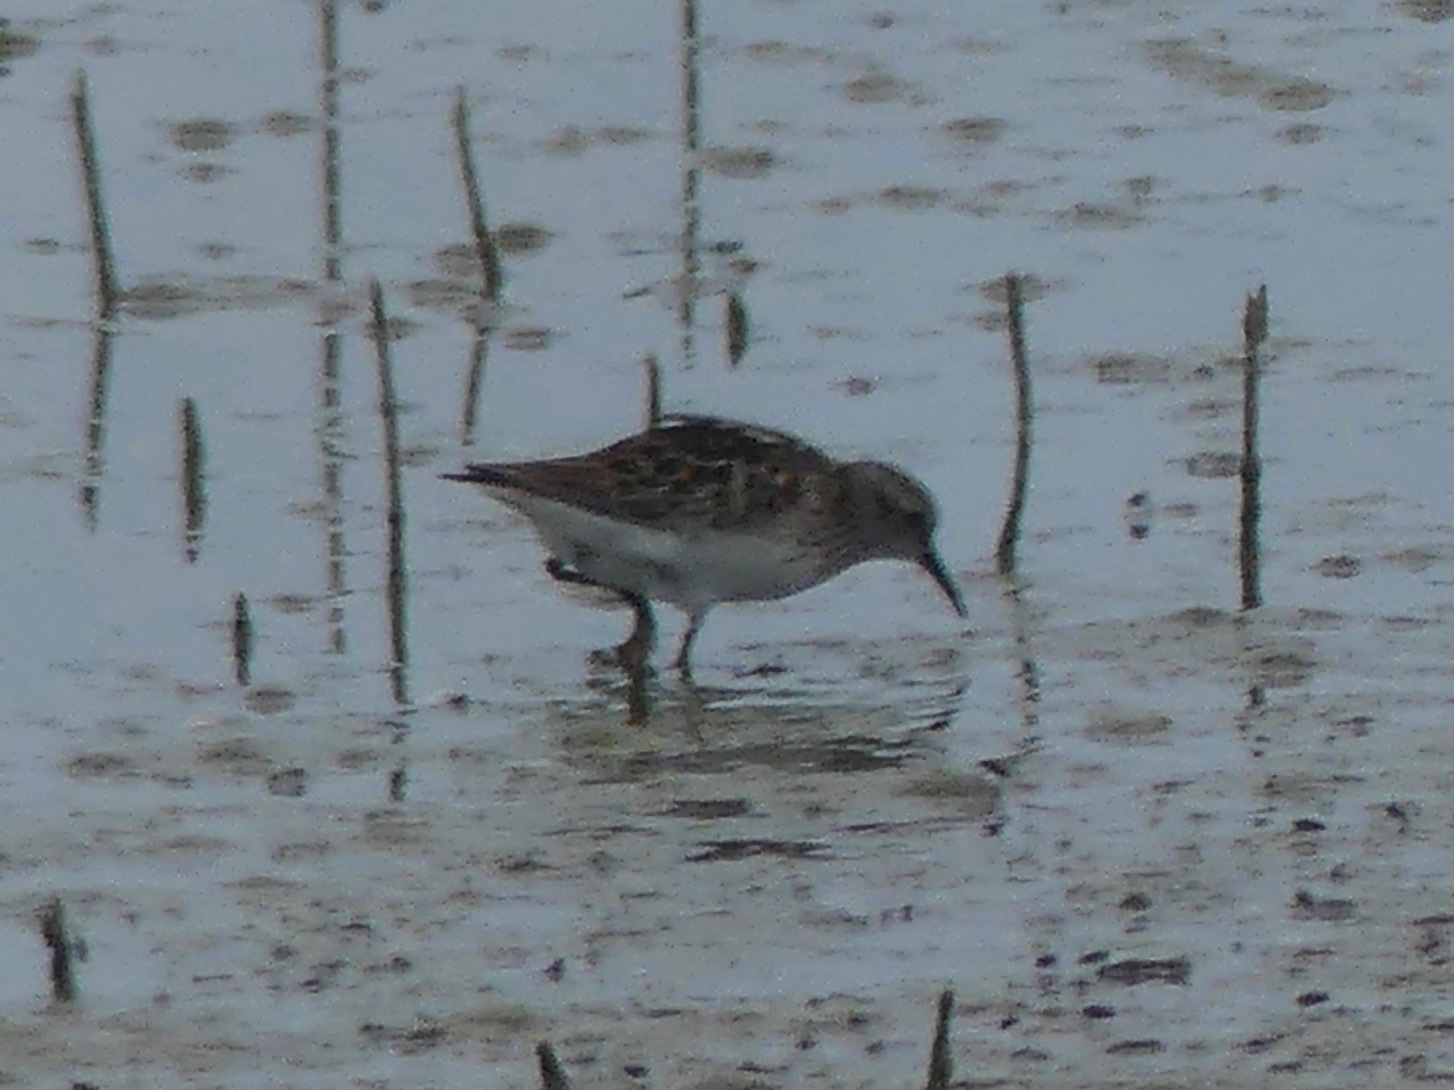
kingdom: Animalia
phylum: Chordata
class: Aves
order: Charadriiformes
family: Scolopacidae
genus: Calidris
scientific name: Calidris minutilla
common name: Least sandpiper
